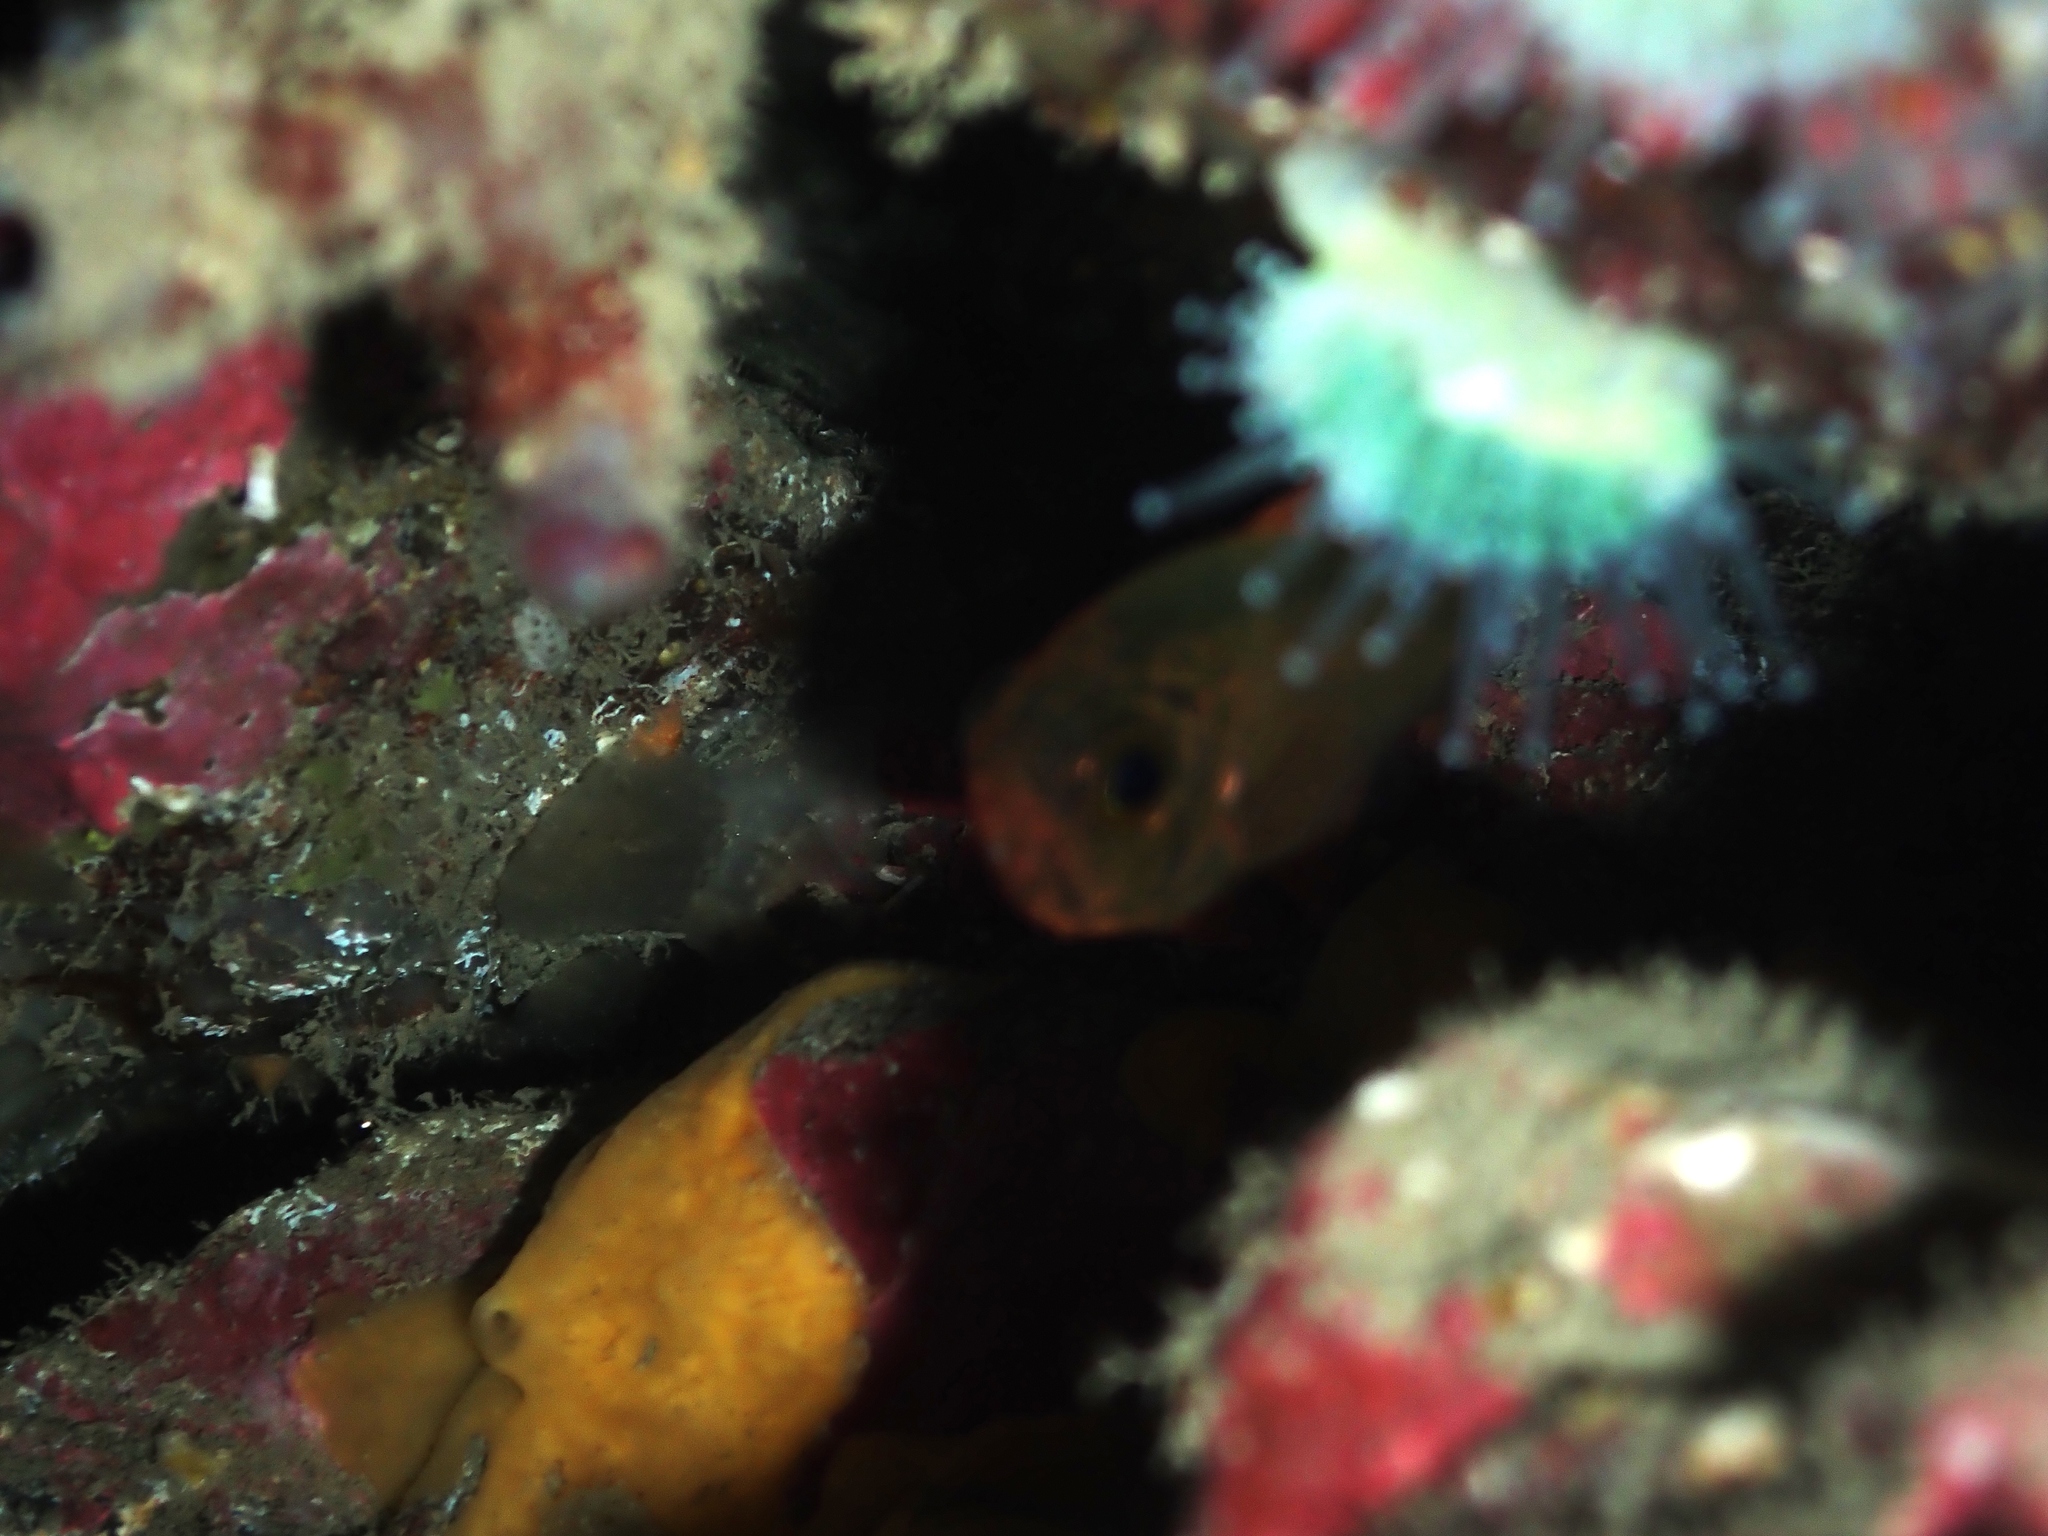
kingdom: Animalia
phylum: Chordata
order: Beryciformes
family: Trachichthyidae
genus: Optivus
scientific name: Optivus elongatus
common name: Slender roughy
